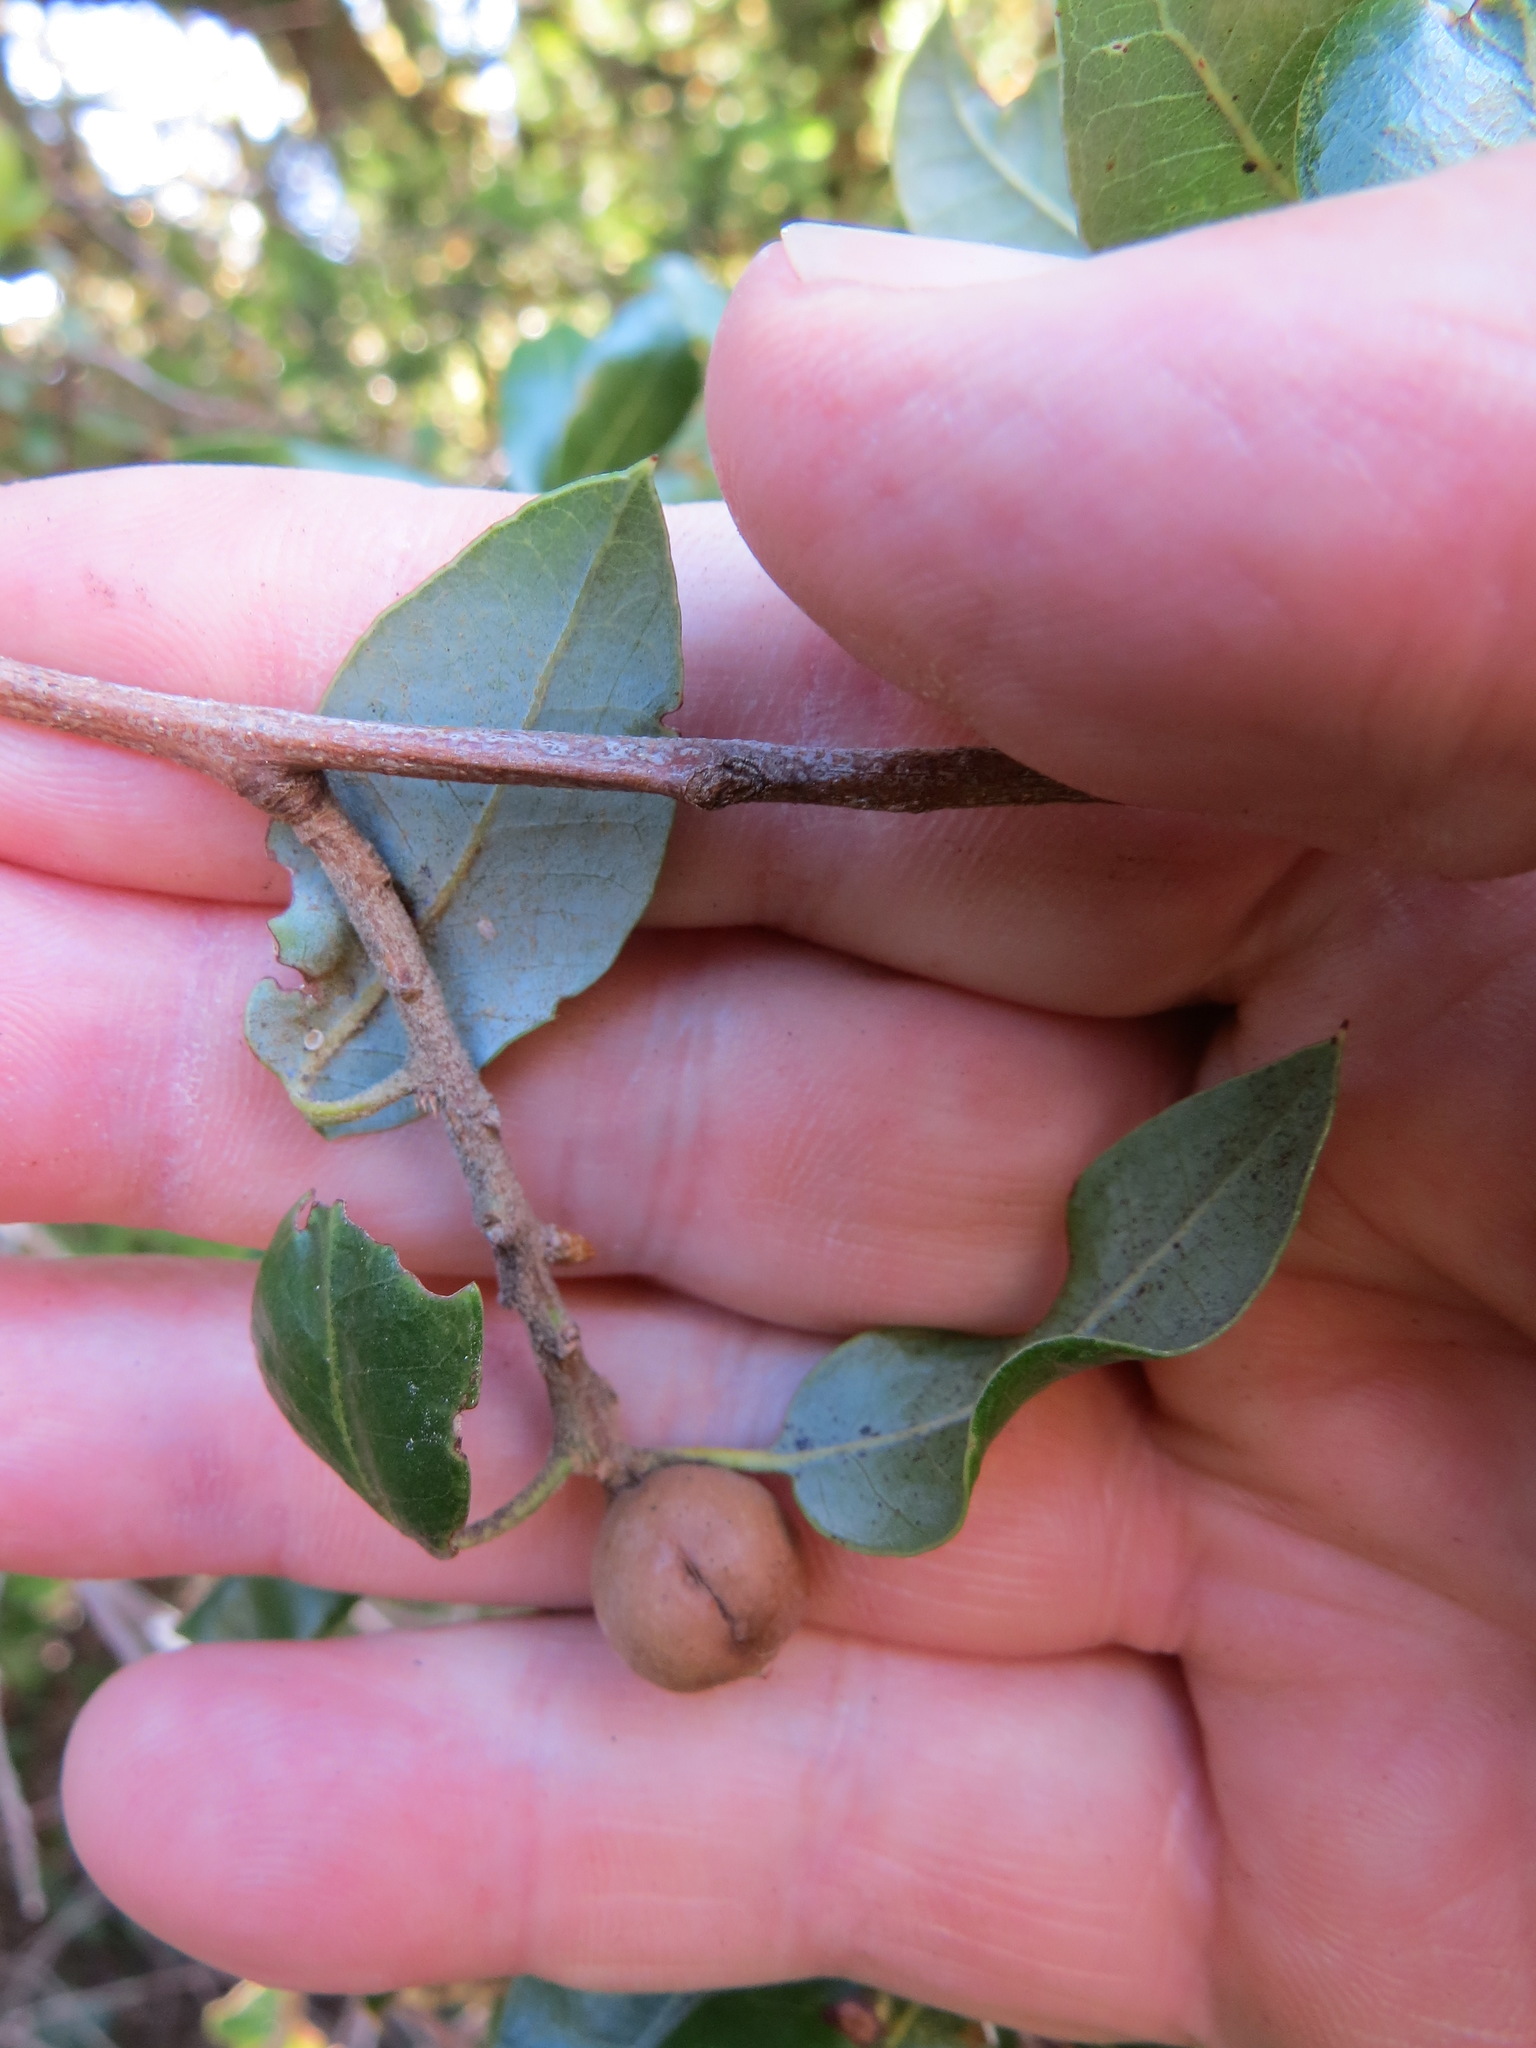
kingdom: Animalia
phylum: Arthropoda
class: Insecta
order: Hymenoptera
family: Cynipidae
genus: Heteroecus
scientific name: Heteroecus
